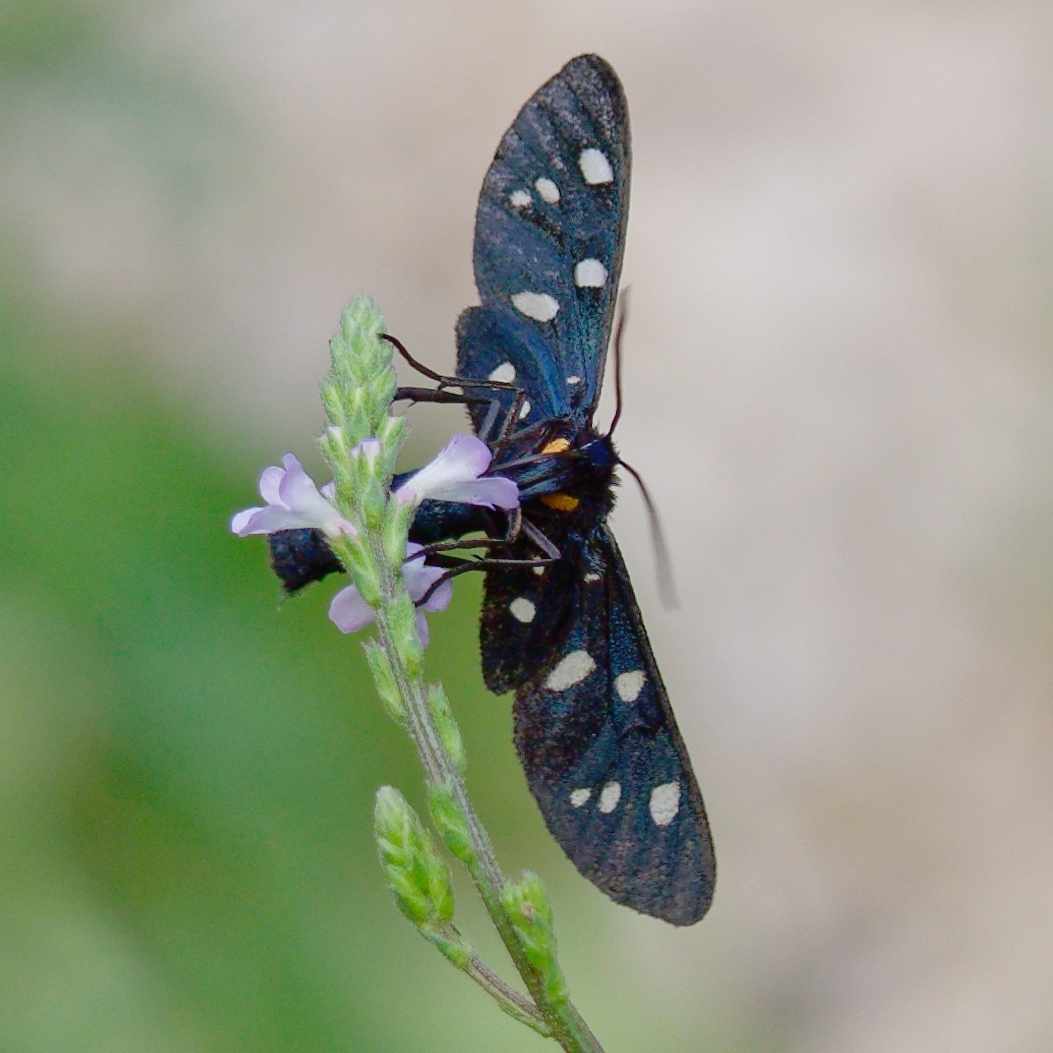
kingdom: Animalia
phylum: Arthropoda
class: Insecta
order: Lepidoptera
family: Erebidae
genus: Amata
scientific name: Amata phegea
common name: Nine-spotted
